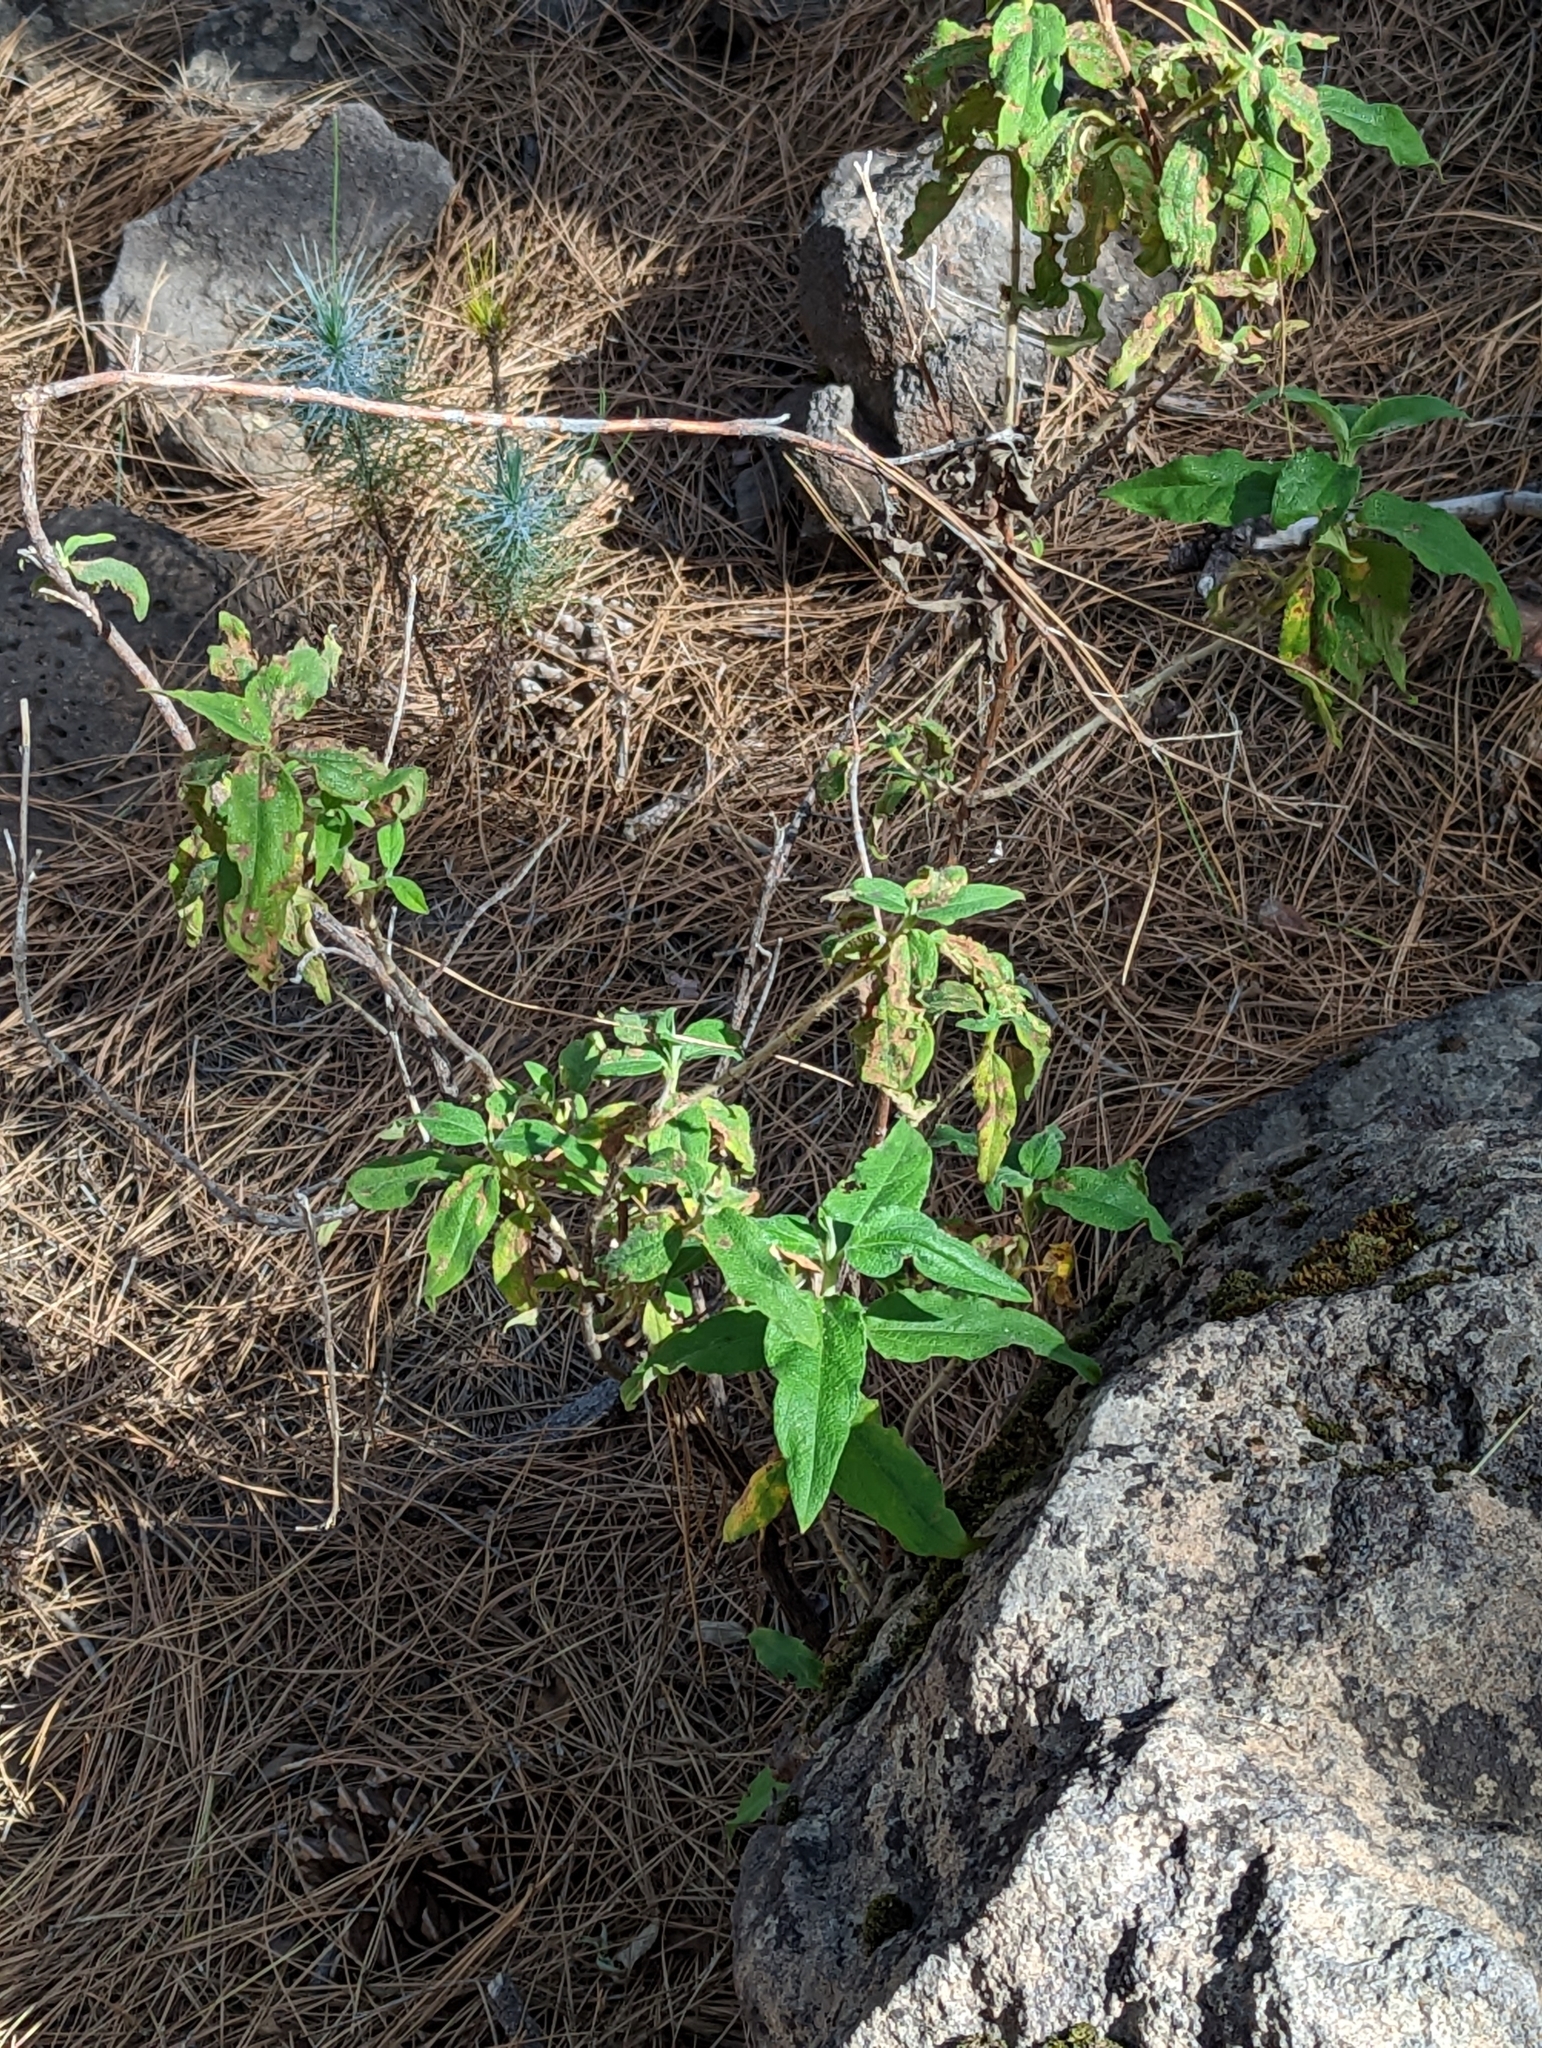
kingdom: Plantae
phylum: Tracheophyta
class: Magnoliopsida
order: Malvales
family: Cistaceae
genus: Cistus
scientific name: Cistus symphytifolius
